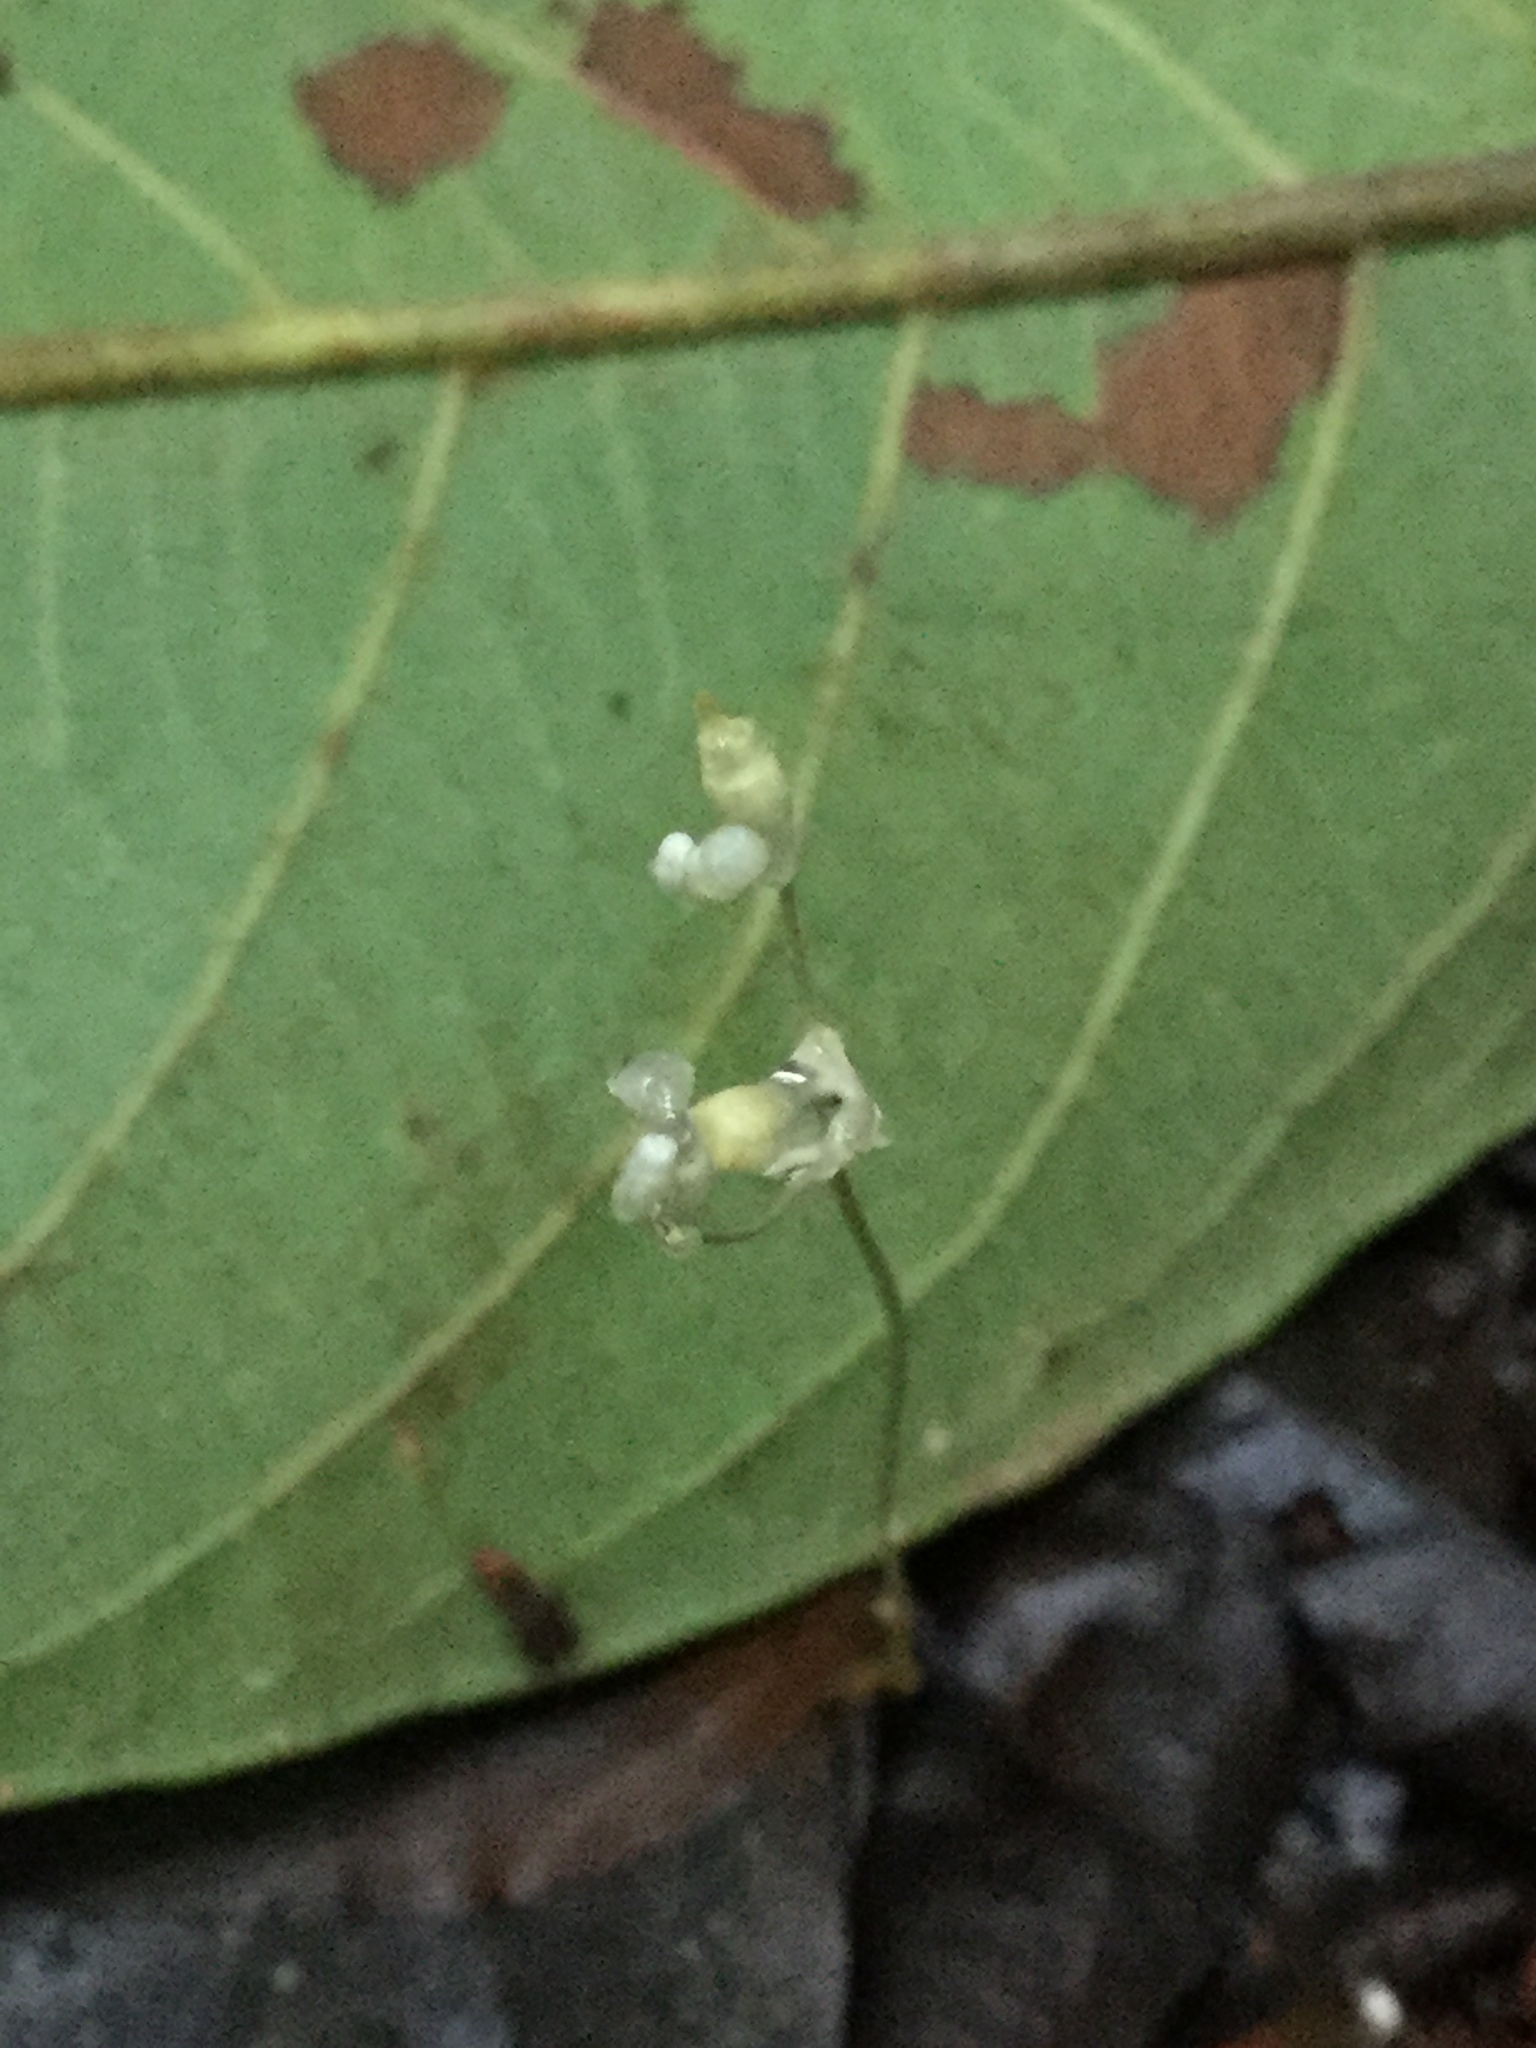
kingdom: Plantae
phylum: Tracheophyta
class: Liliopsida
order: Dioscoreales
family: Burmanniaceae
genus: Dictyostega
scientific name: Dictyostega orobanchoides
